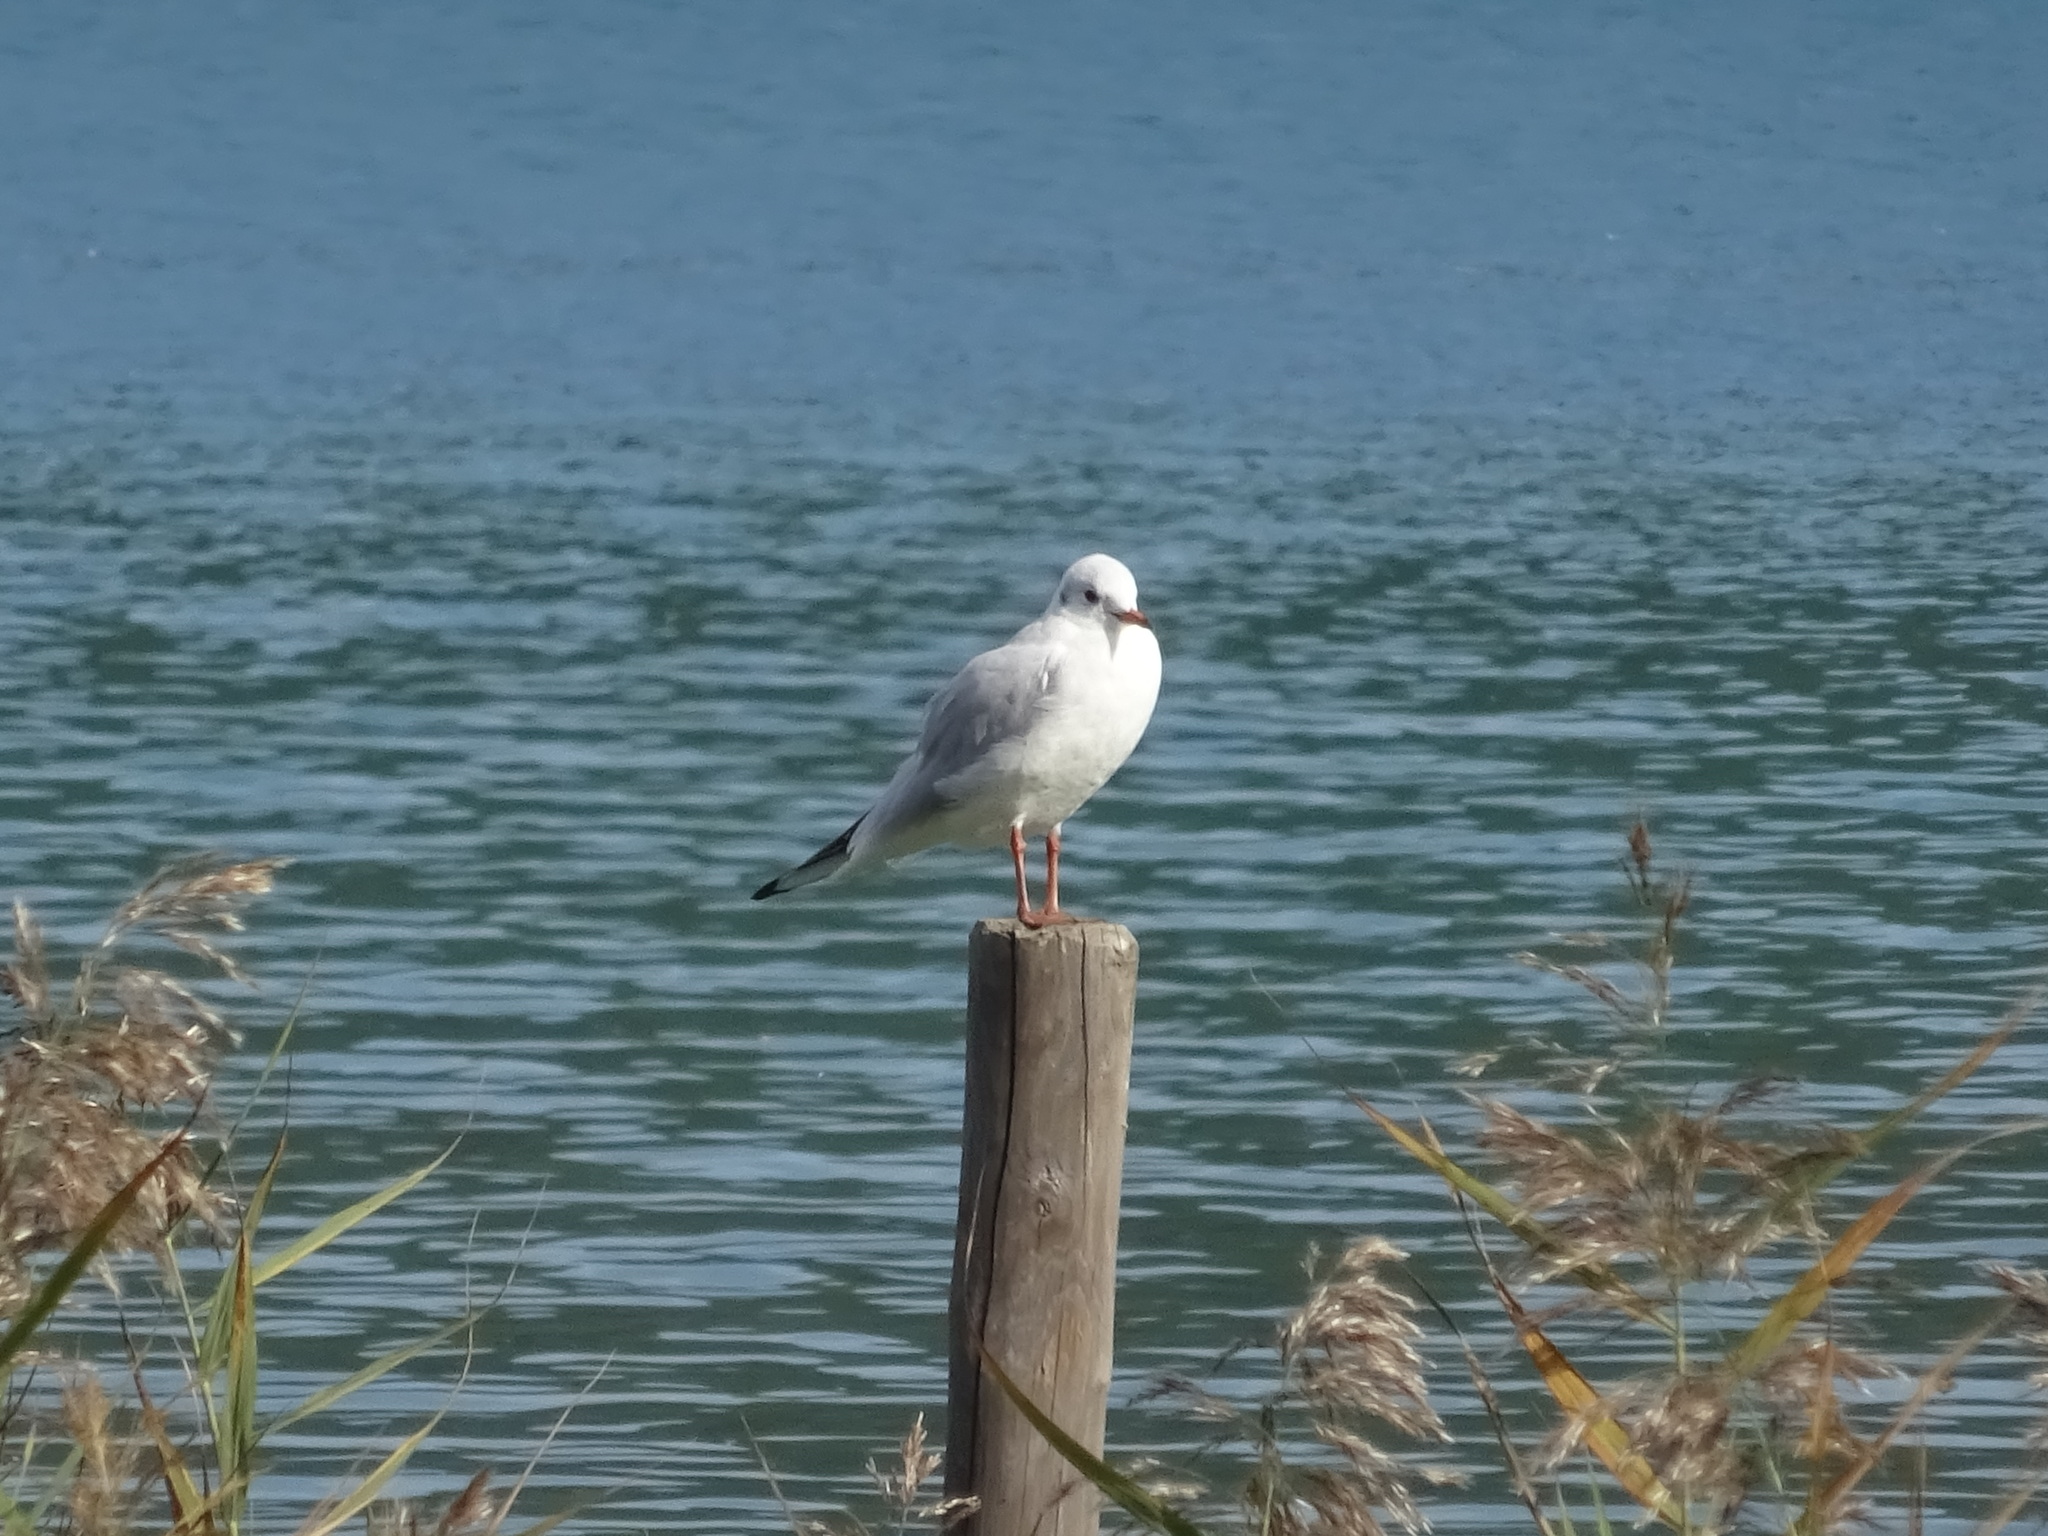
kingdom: Animalia
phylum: Chordata
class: Aves
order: Charadriiformes
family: Laridae
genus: Chroicocephalus
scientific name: Chroicocephalus ridibundus
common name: Black-headed gull
